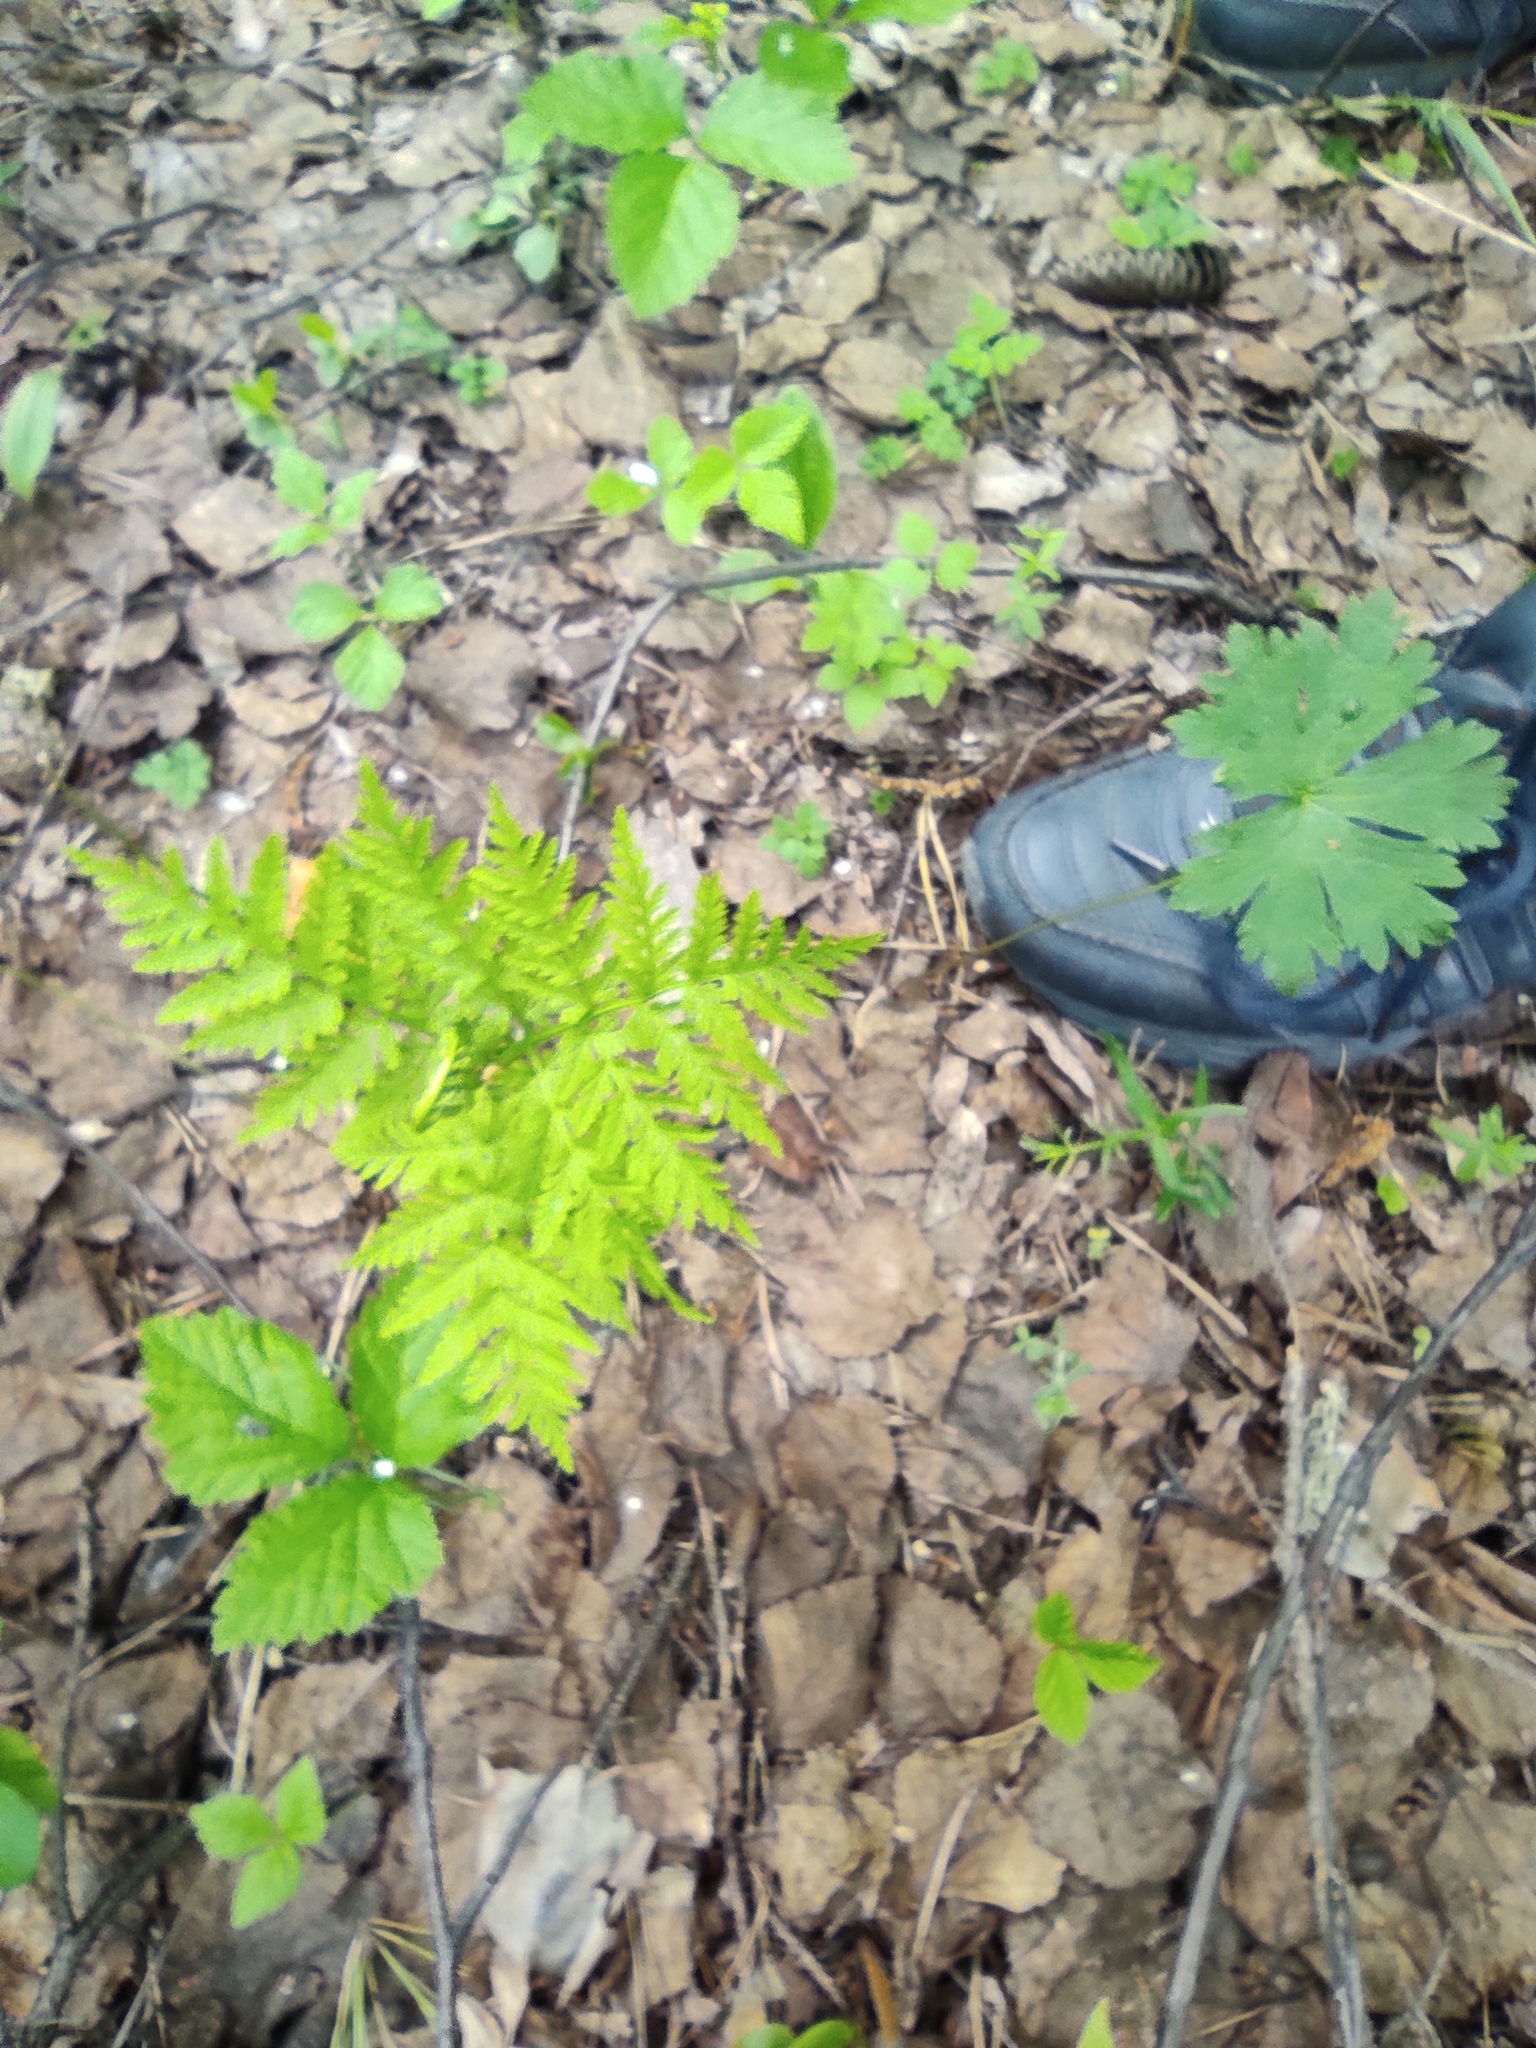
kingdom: Plantae
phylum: Tracheophyta
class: Polypodiopsida
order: Ophioglossales
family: Ophioglossaceae
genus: Botrypus
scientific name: Botrypus virginianus
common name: Common grapefern
